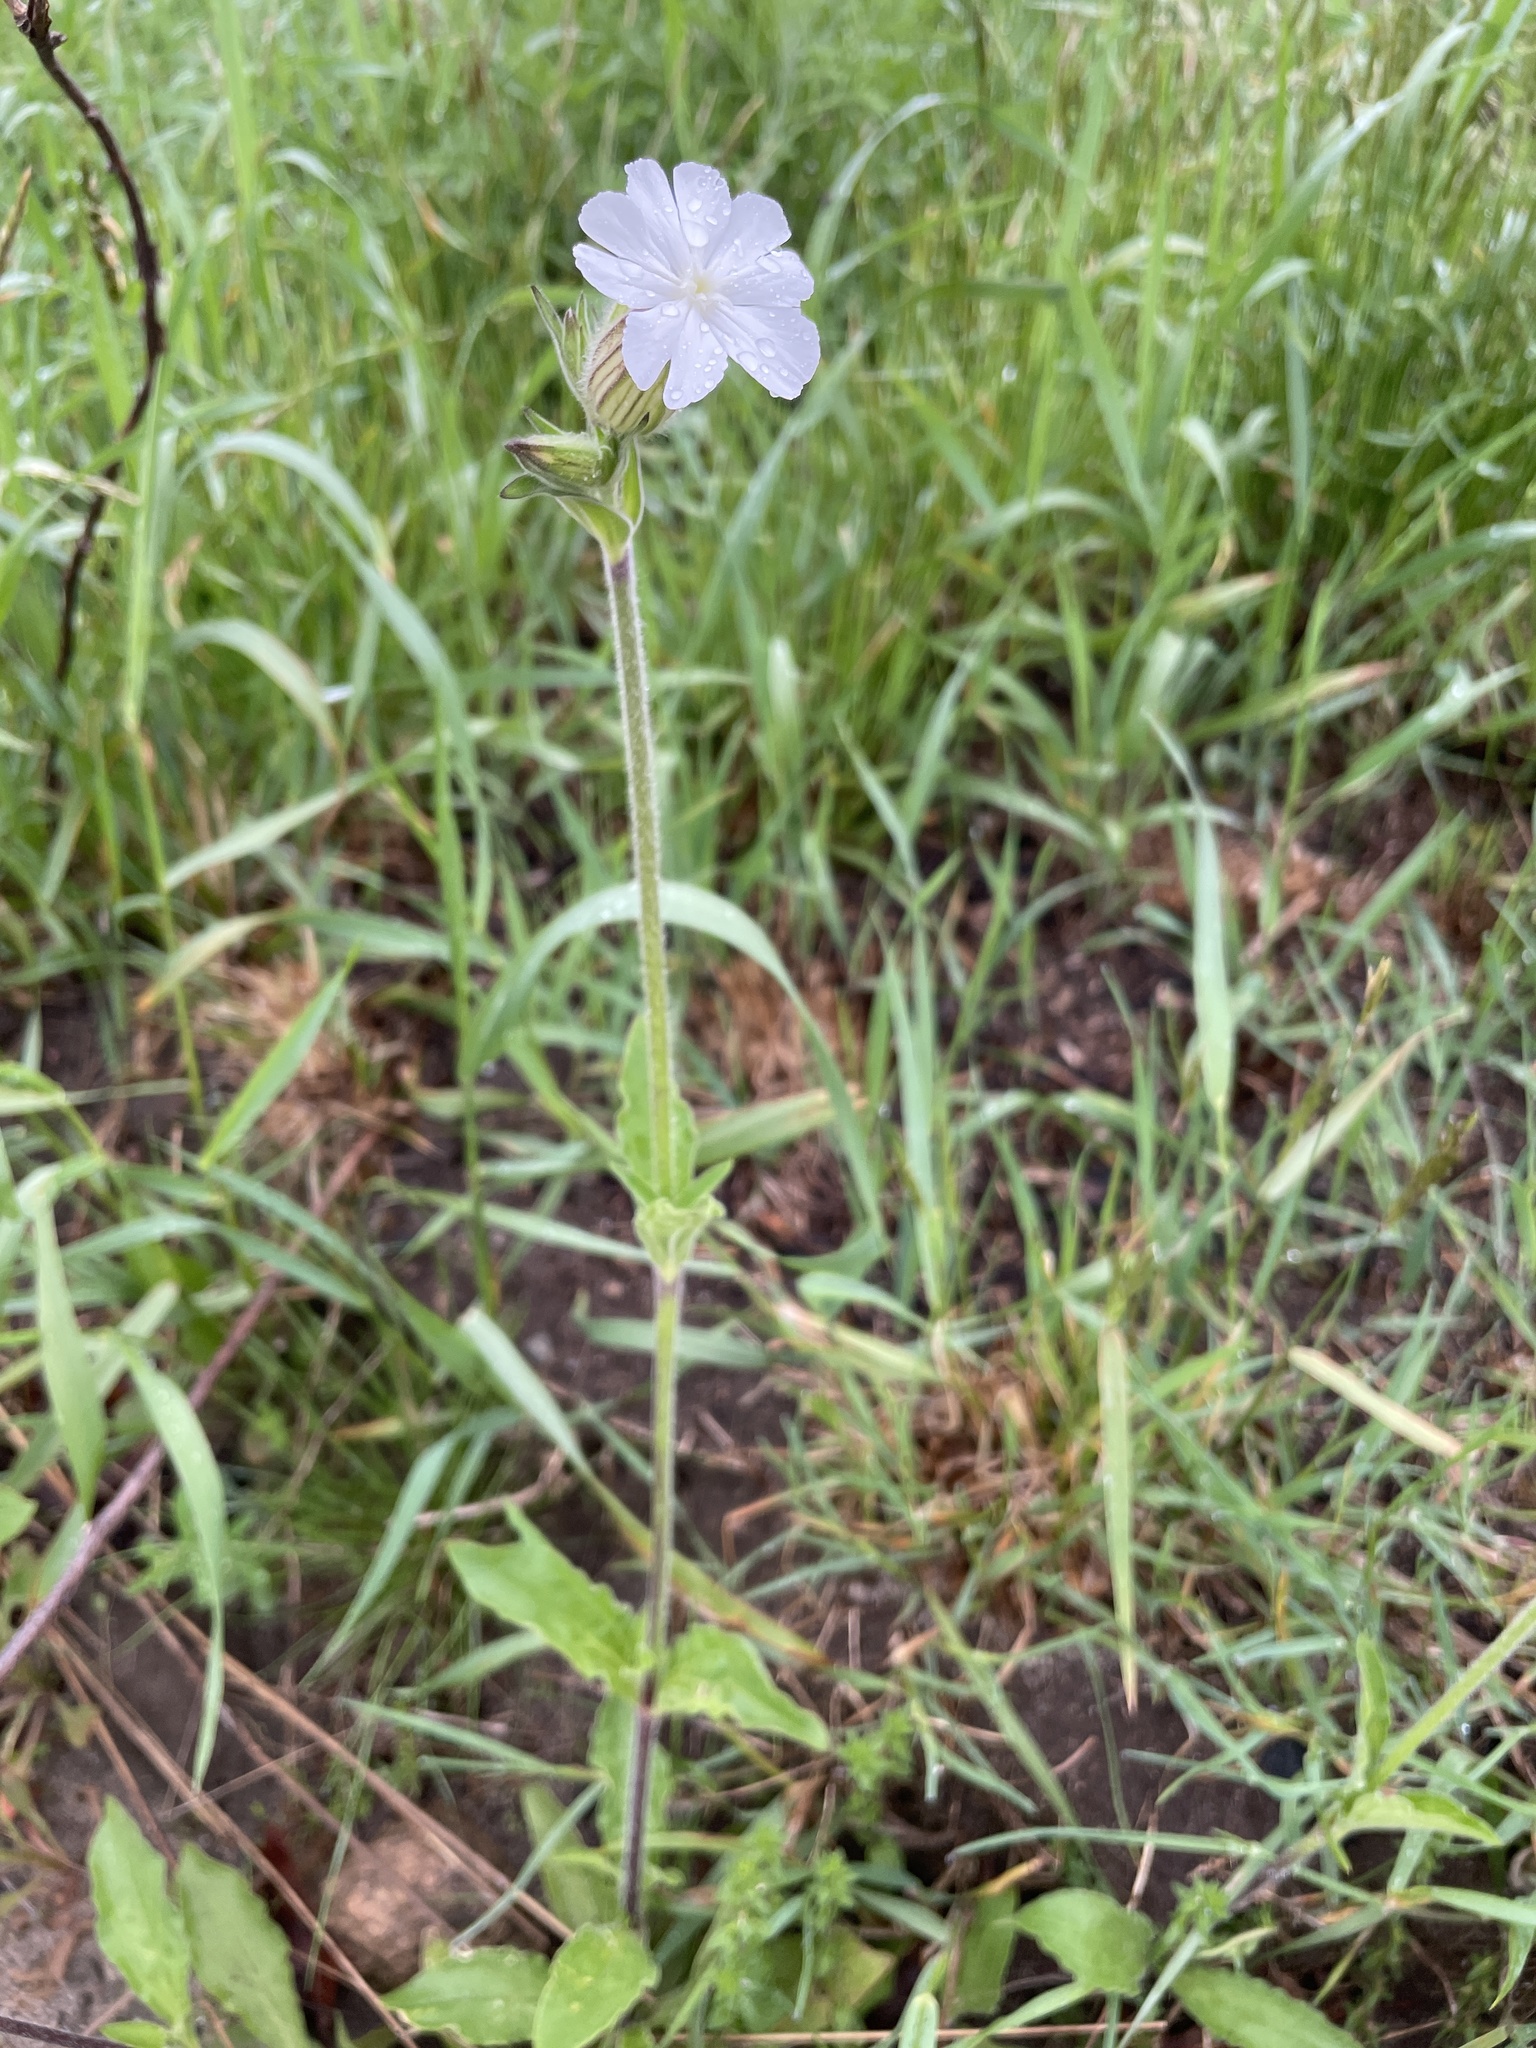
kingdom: Plantae
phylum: Tracheophyta
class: Magnoliopsida
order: Caryophyllales
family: Caryophyllaceae
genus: Silene
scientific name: Silene latifolia
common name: White campion
